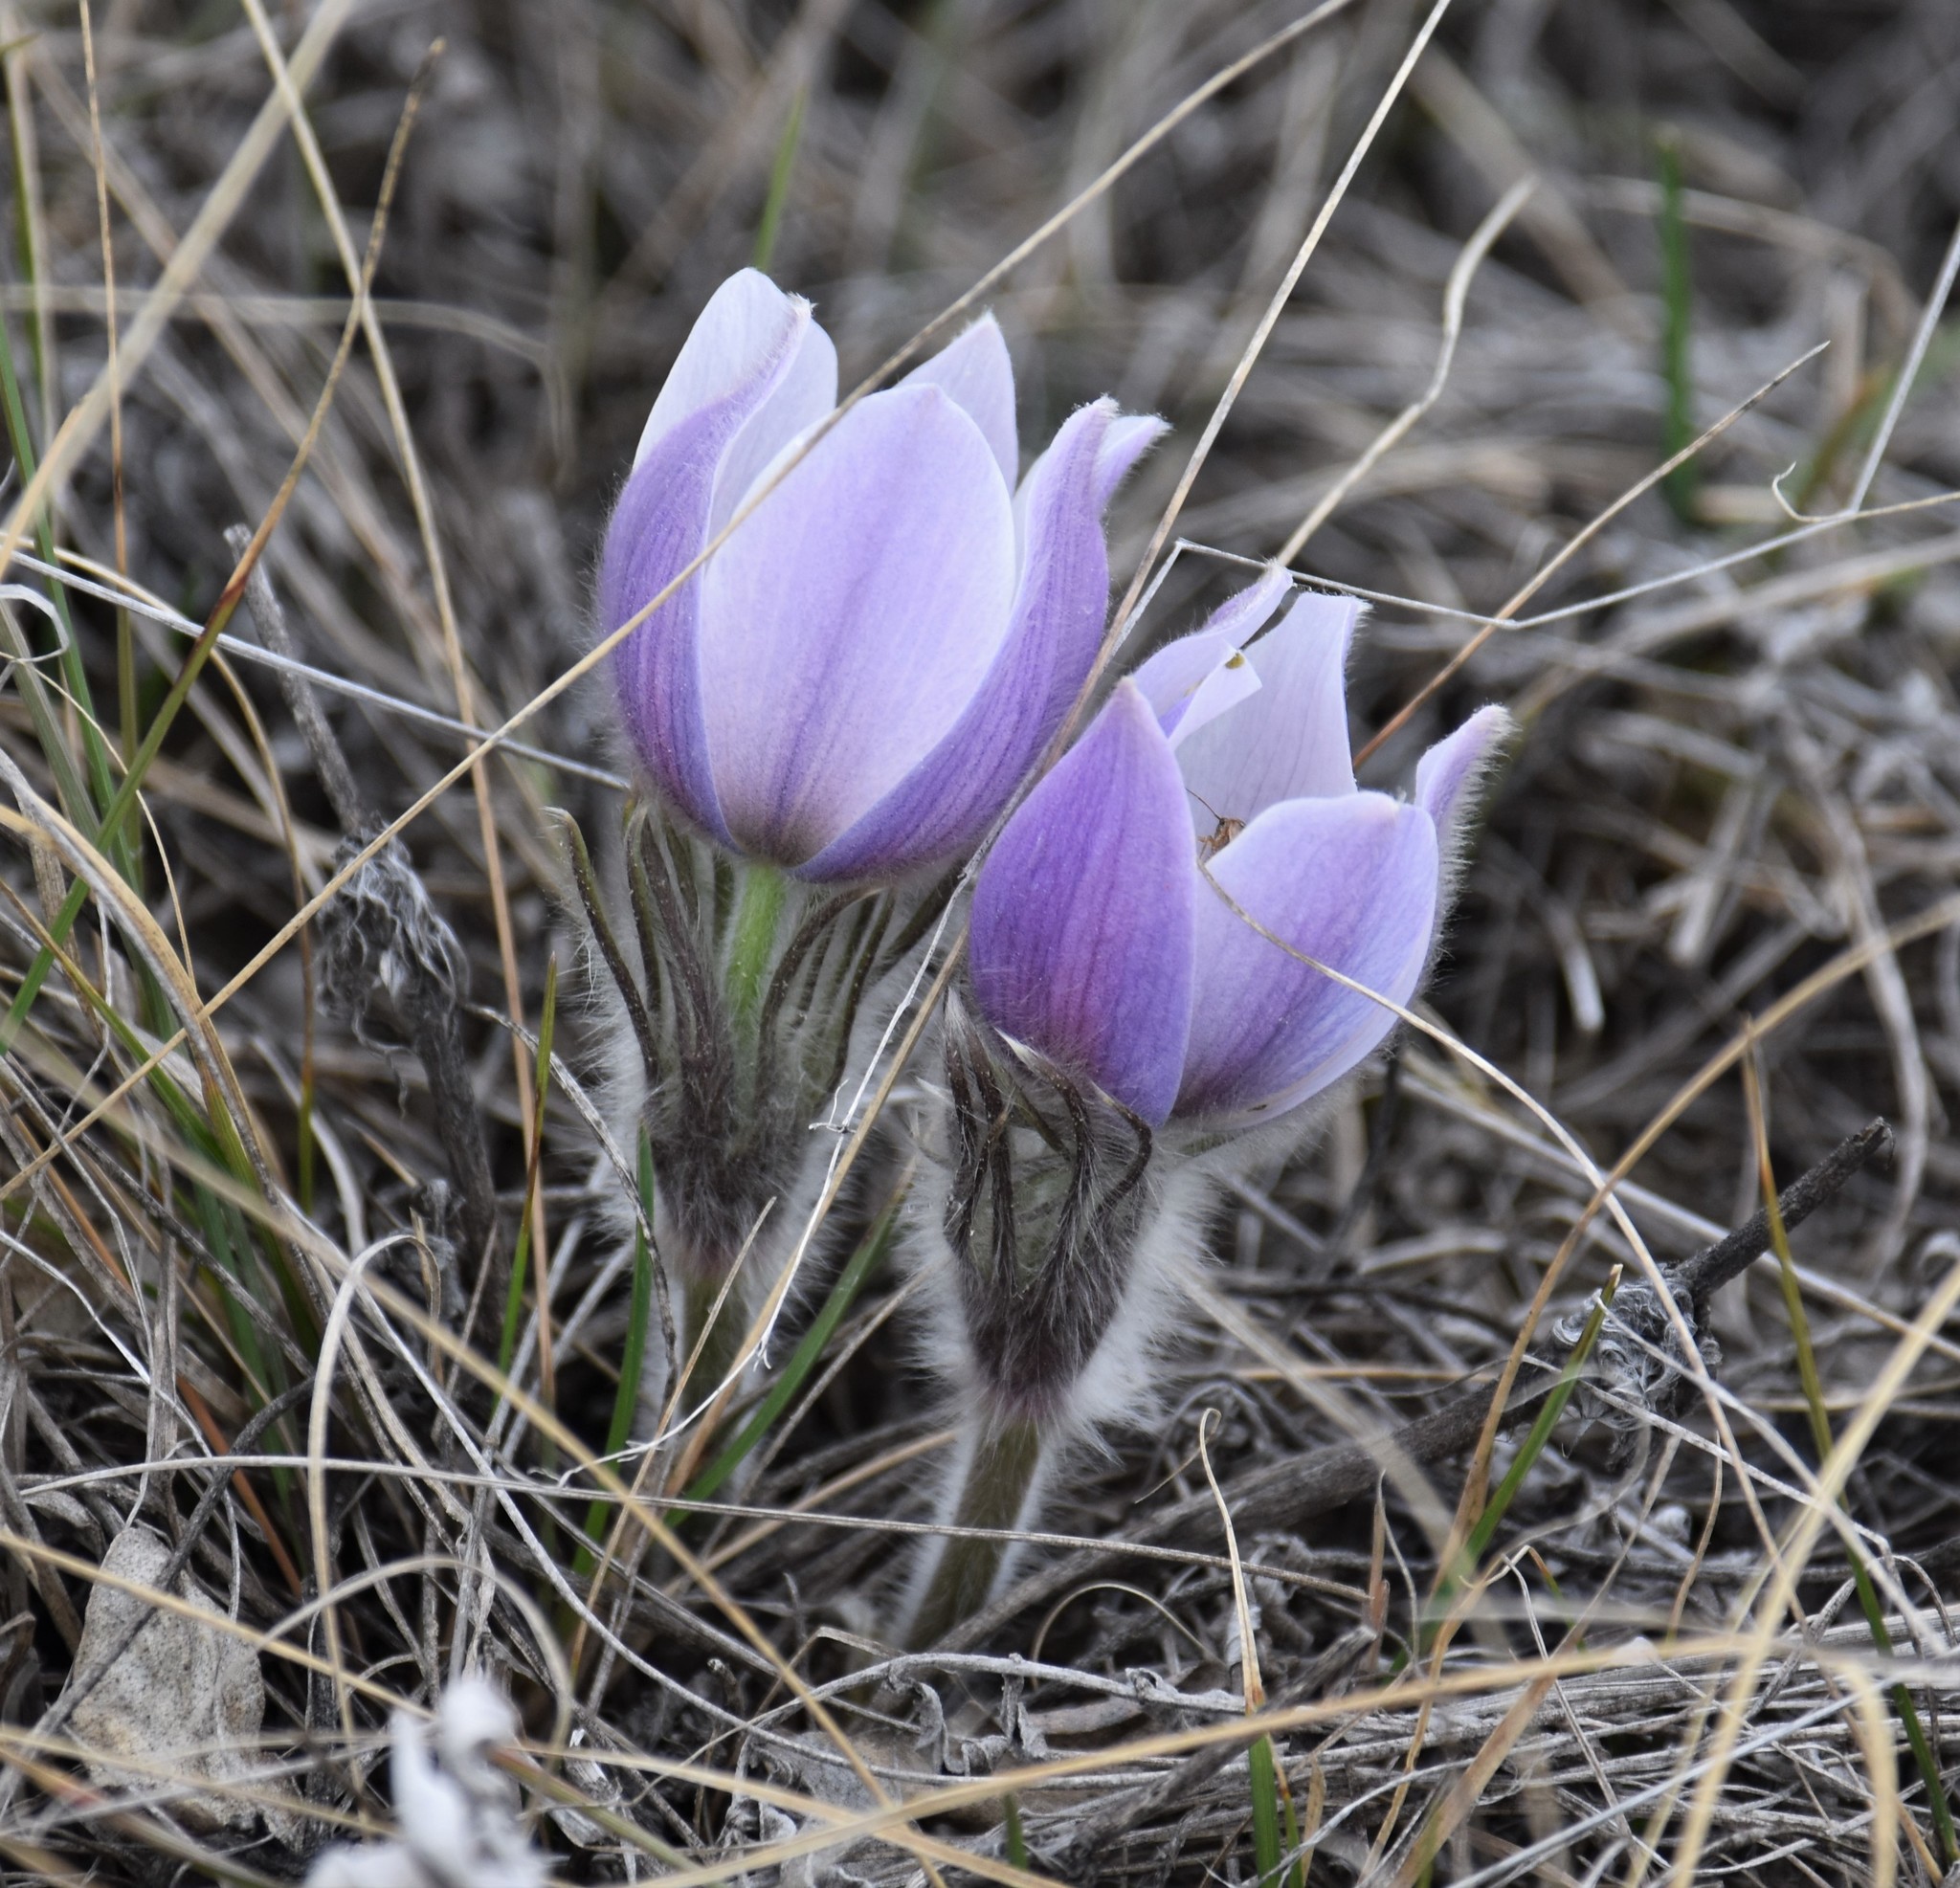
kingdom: Plantae
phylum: Tracheophyta
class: Magnoliopsida
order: Ranunculales
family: Ranunculaceae
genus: Pulsatilla
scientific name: Pulsatilla nuttalliana
